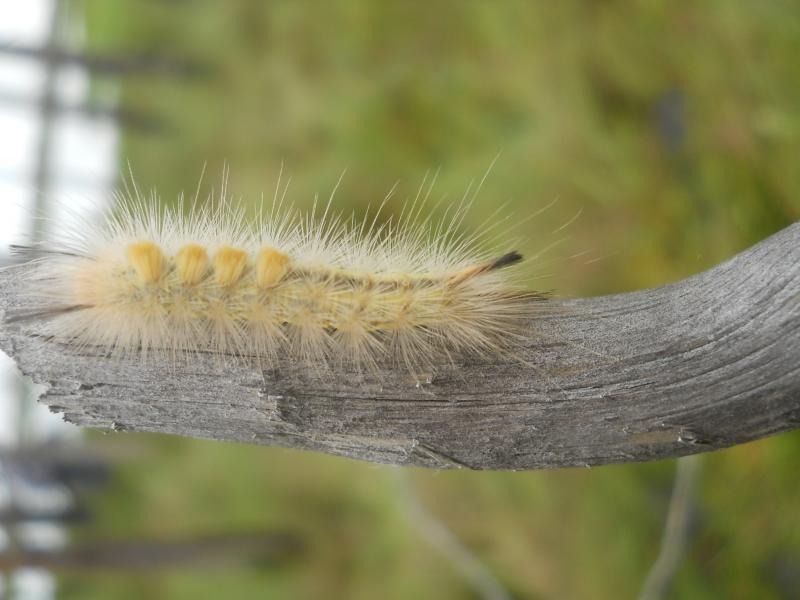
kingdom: Animalia
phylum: Arthropoda
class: Insecta
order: Lepidoptera
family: Erebidae
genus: Laelia
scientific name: Laelia coenosa
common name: Reed tussock
